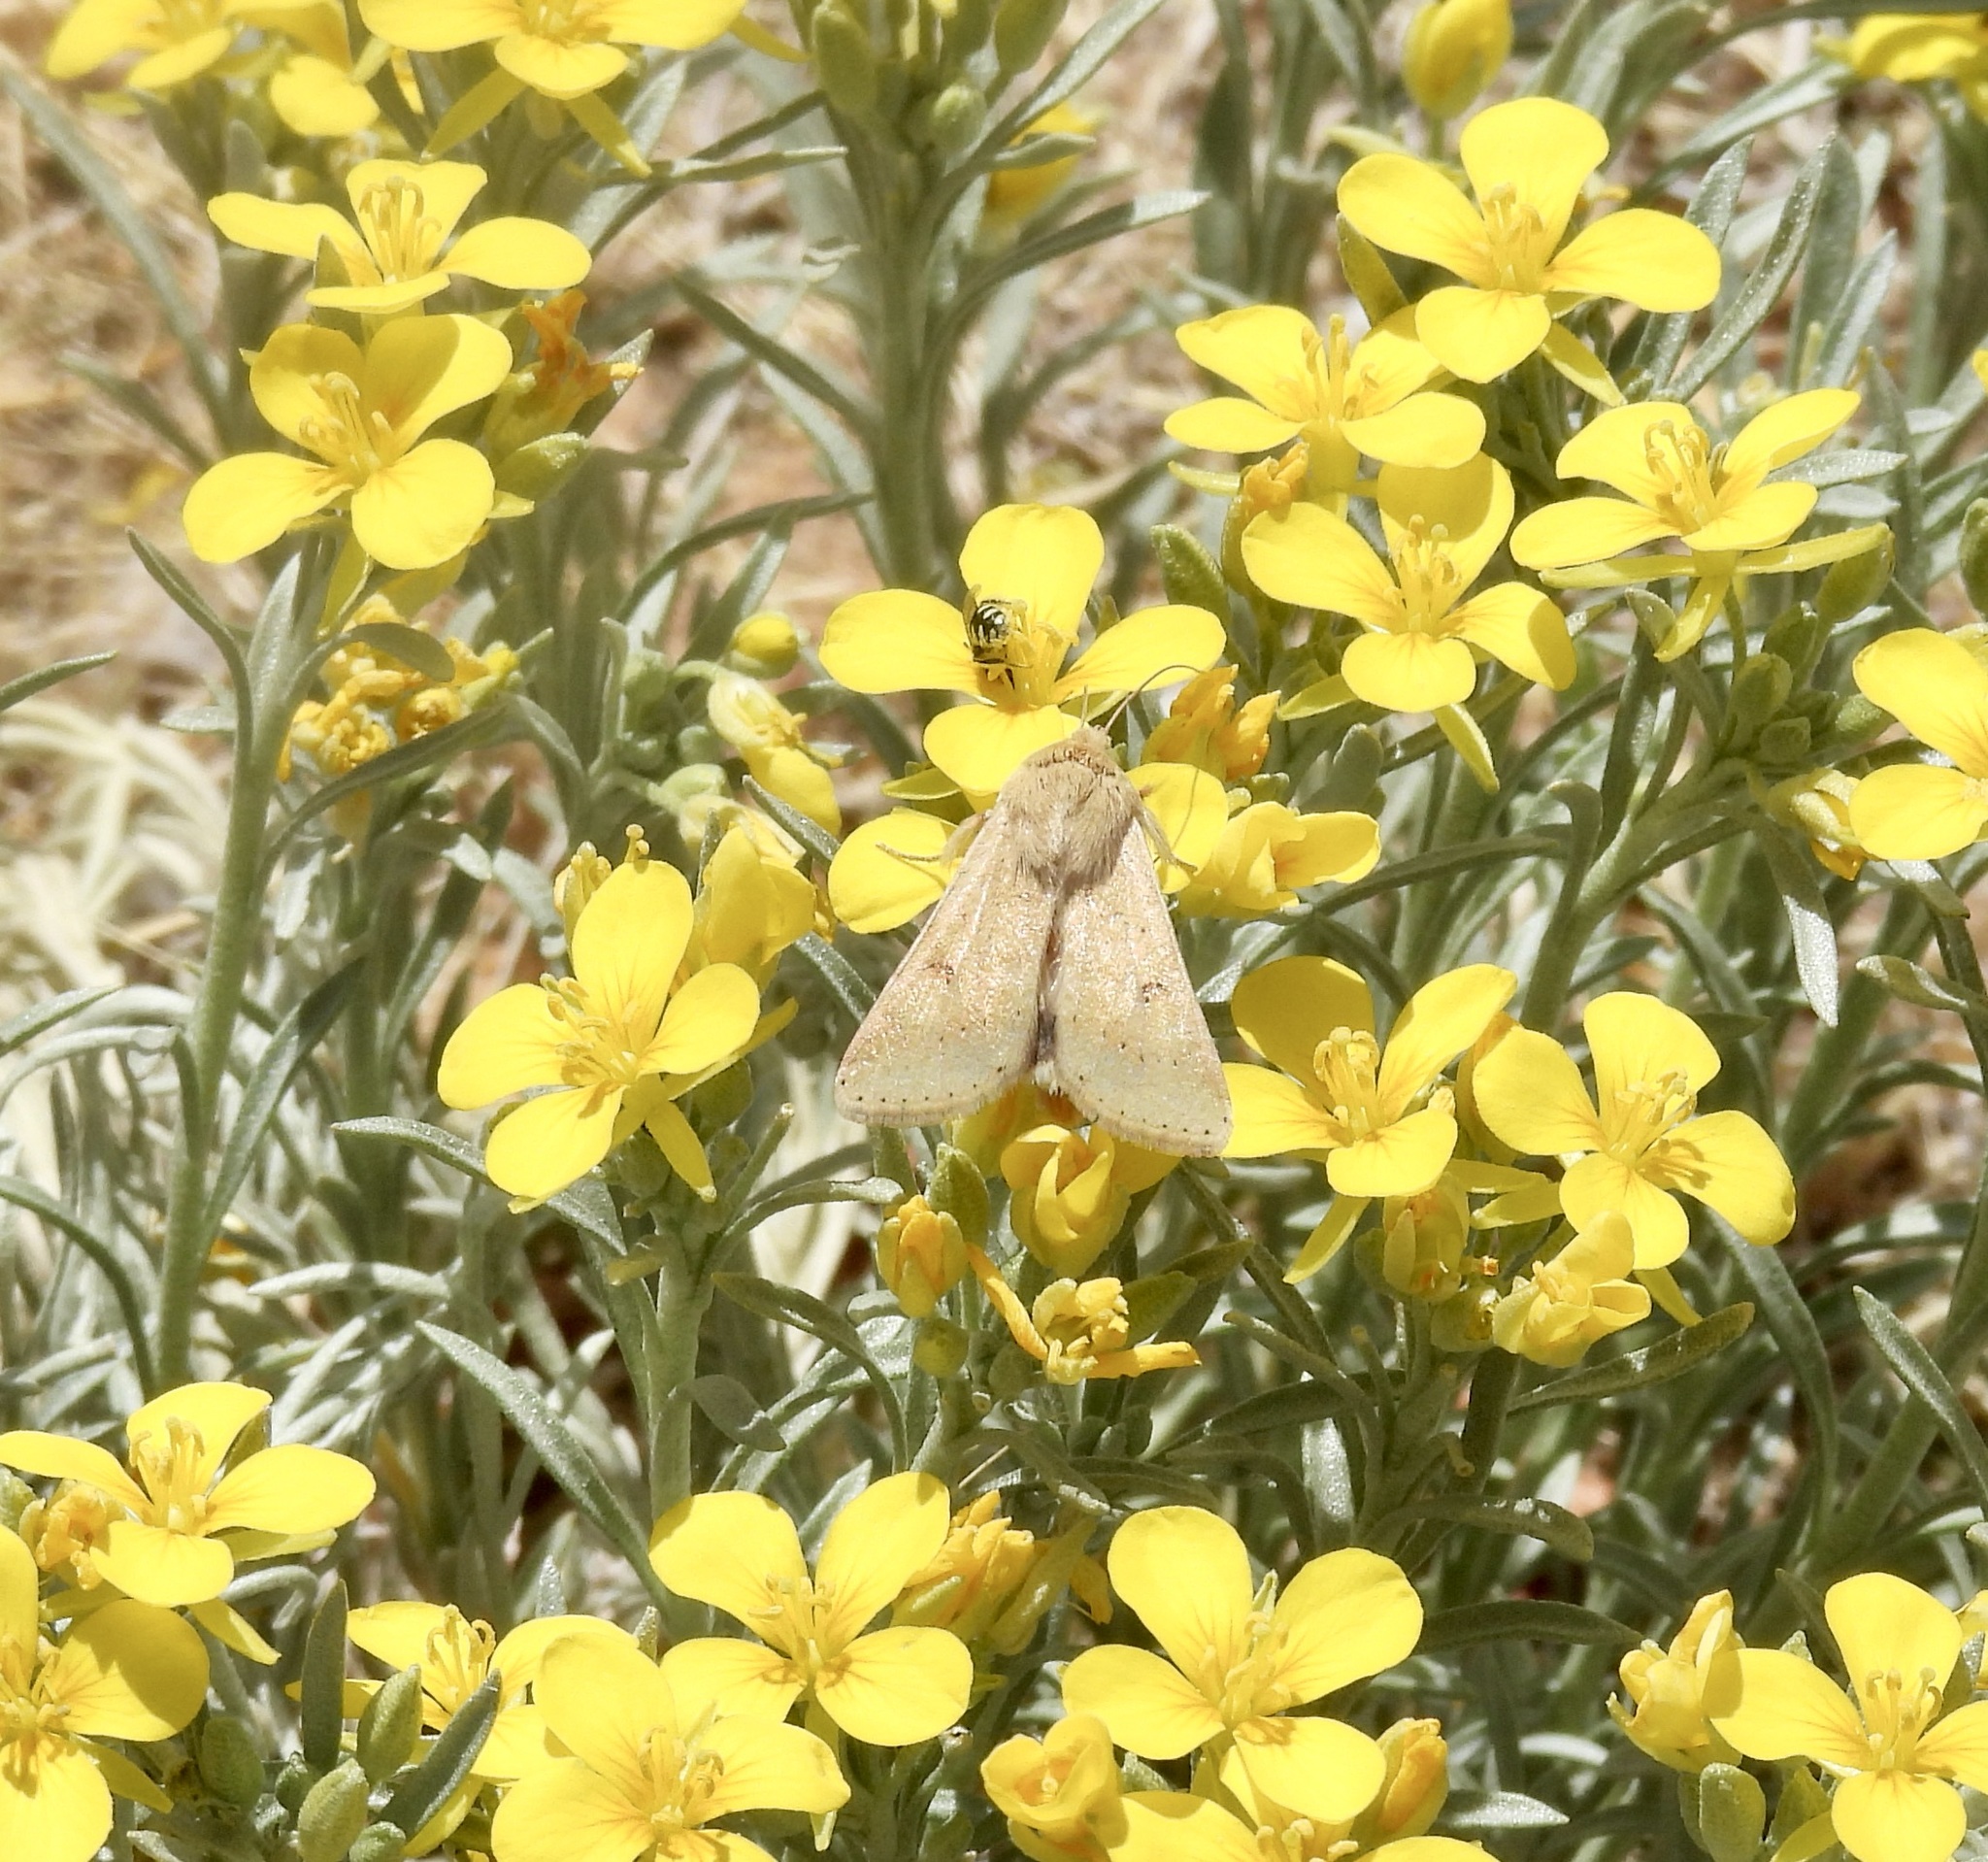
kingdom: Animalia
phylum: Arthropoda
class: Insecta
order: Lepidoptera
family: Noctuidae
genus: Helicoverpa
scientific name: Helicoverpa zea
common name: Bollworm
